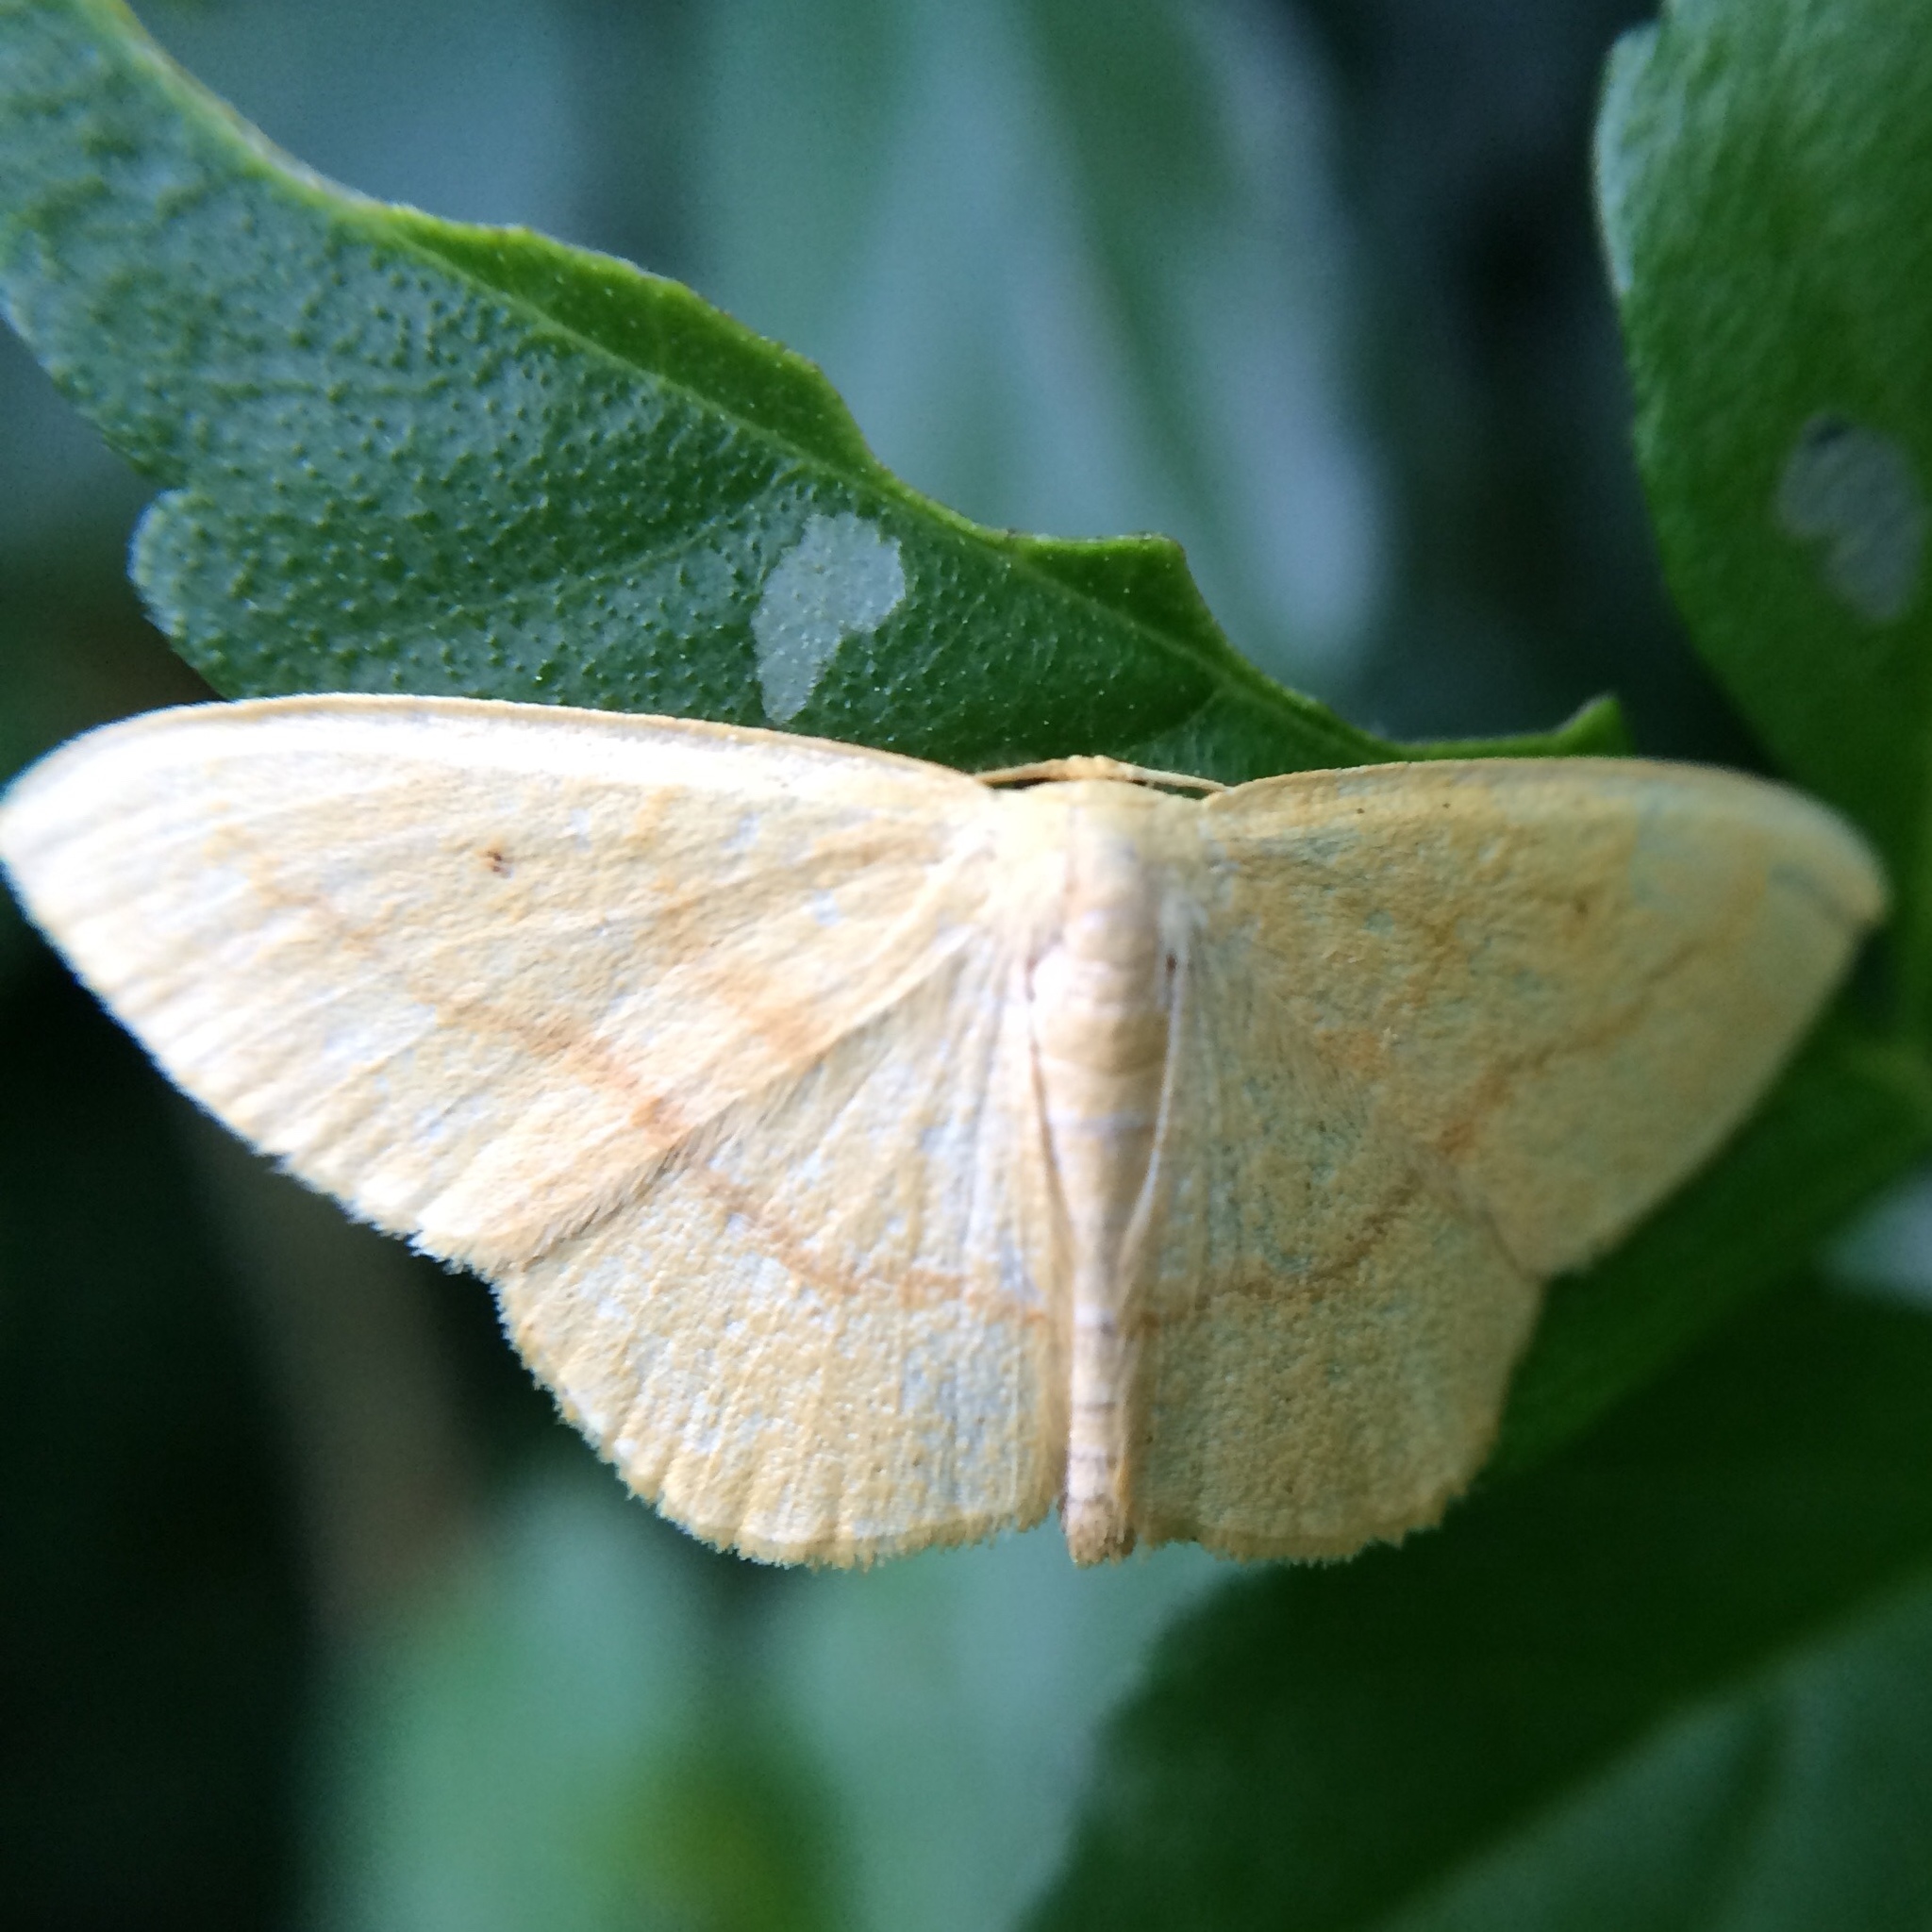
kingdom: Animalia
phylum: Arthropoda
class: Insecta
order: Lepidoptera
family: Geometridae
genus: Scopula
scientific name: Scopula straminea
